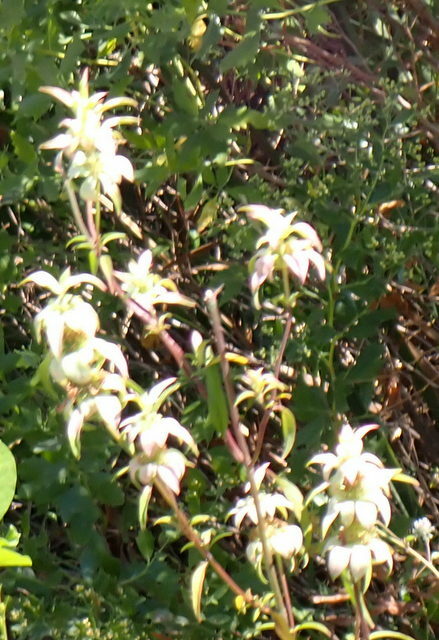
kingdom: Plantae
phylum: Tracheophyta
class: Magnoliopsida
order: Lamiales
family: Lamiaceae
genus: Monarda
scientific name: Monarda punctata
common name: Dotted monarda
